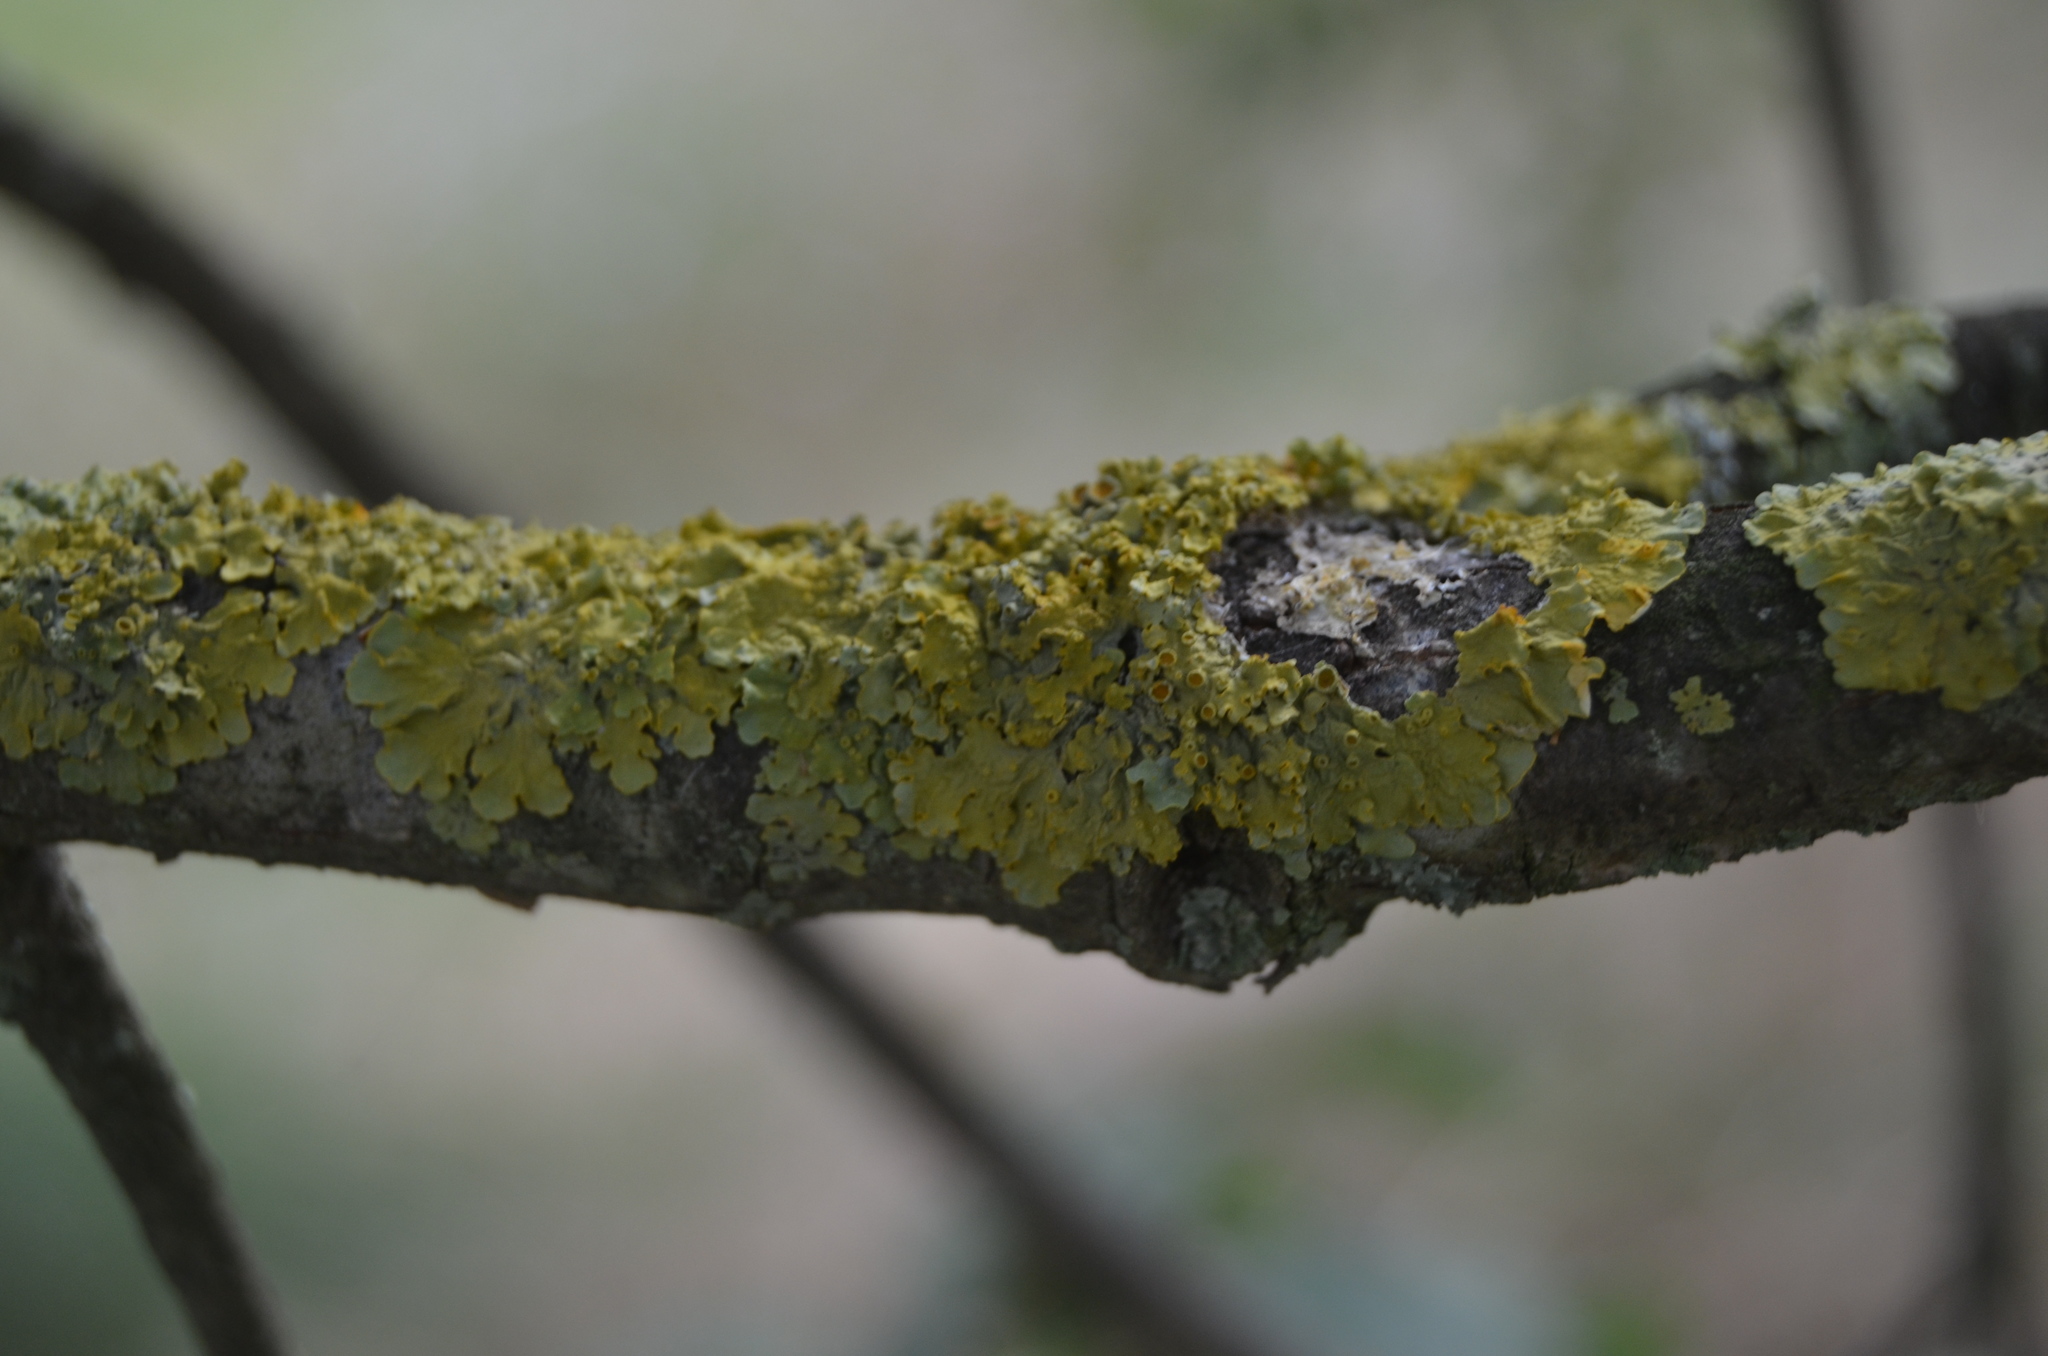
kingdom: Fungi
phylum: Ascomycota
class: Lecanoromycetes
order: Teloschistales
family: Teloschistaceae
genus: Xanthoria
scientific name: Xanthoria parietina
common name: Common orange lichen
